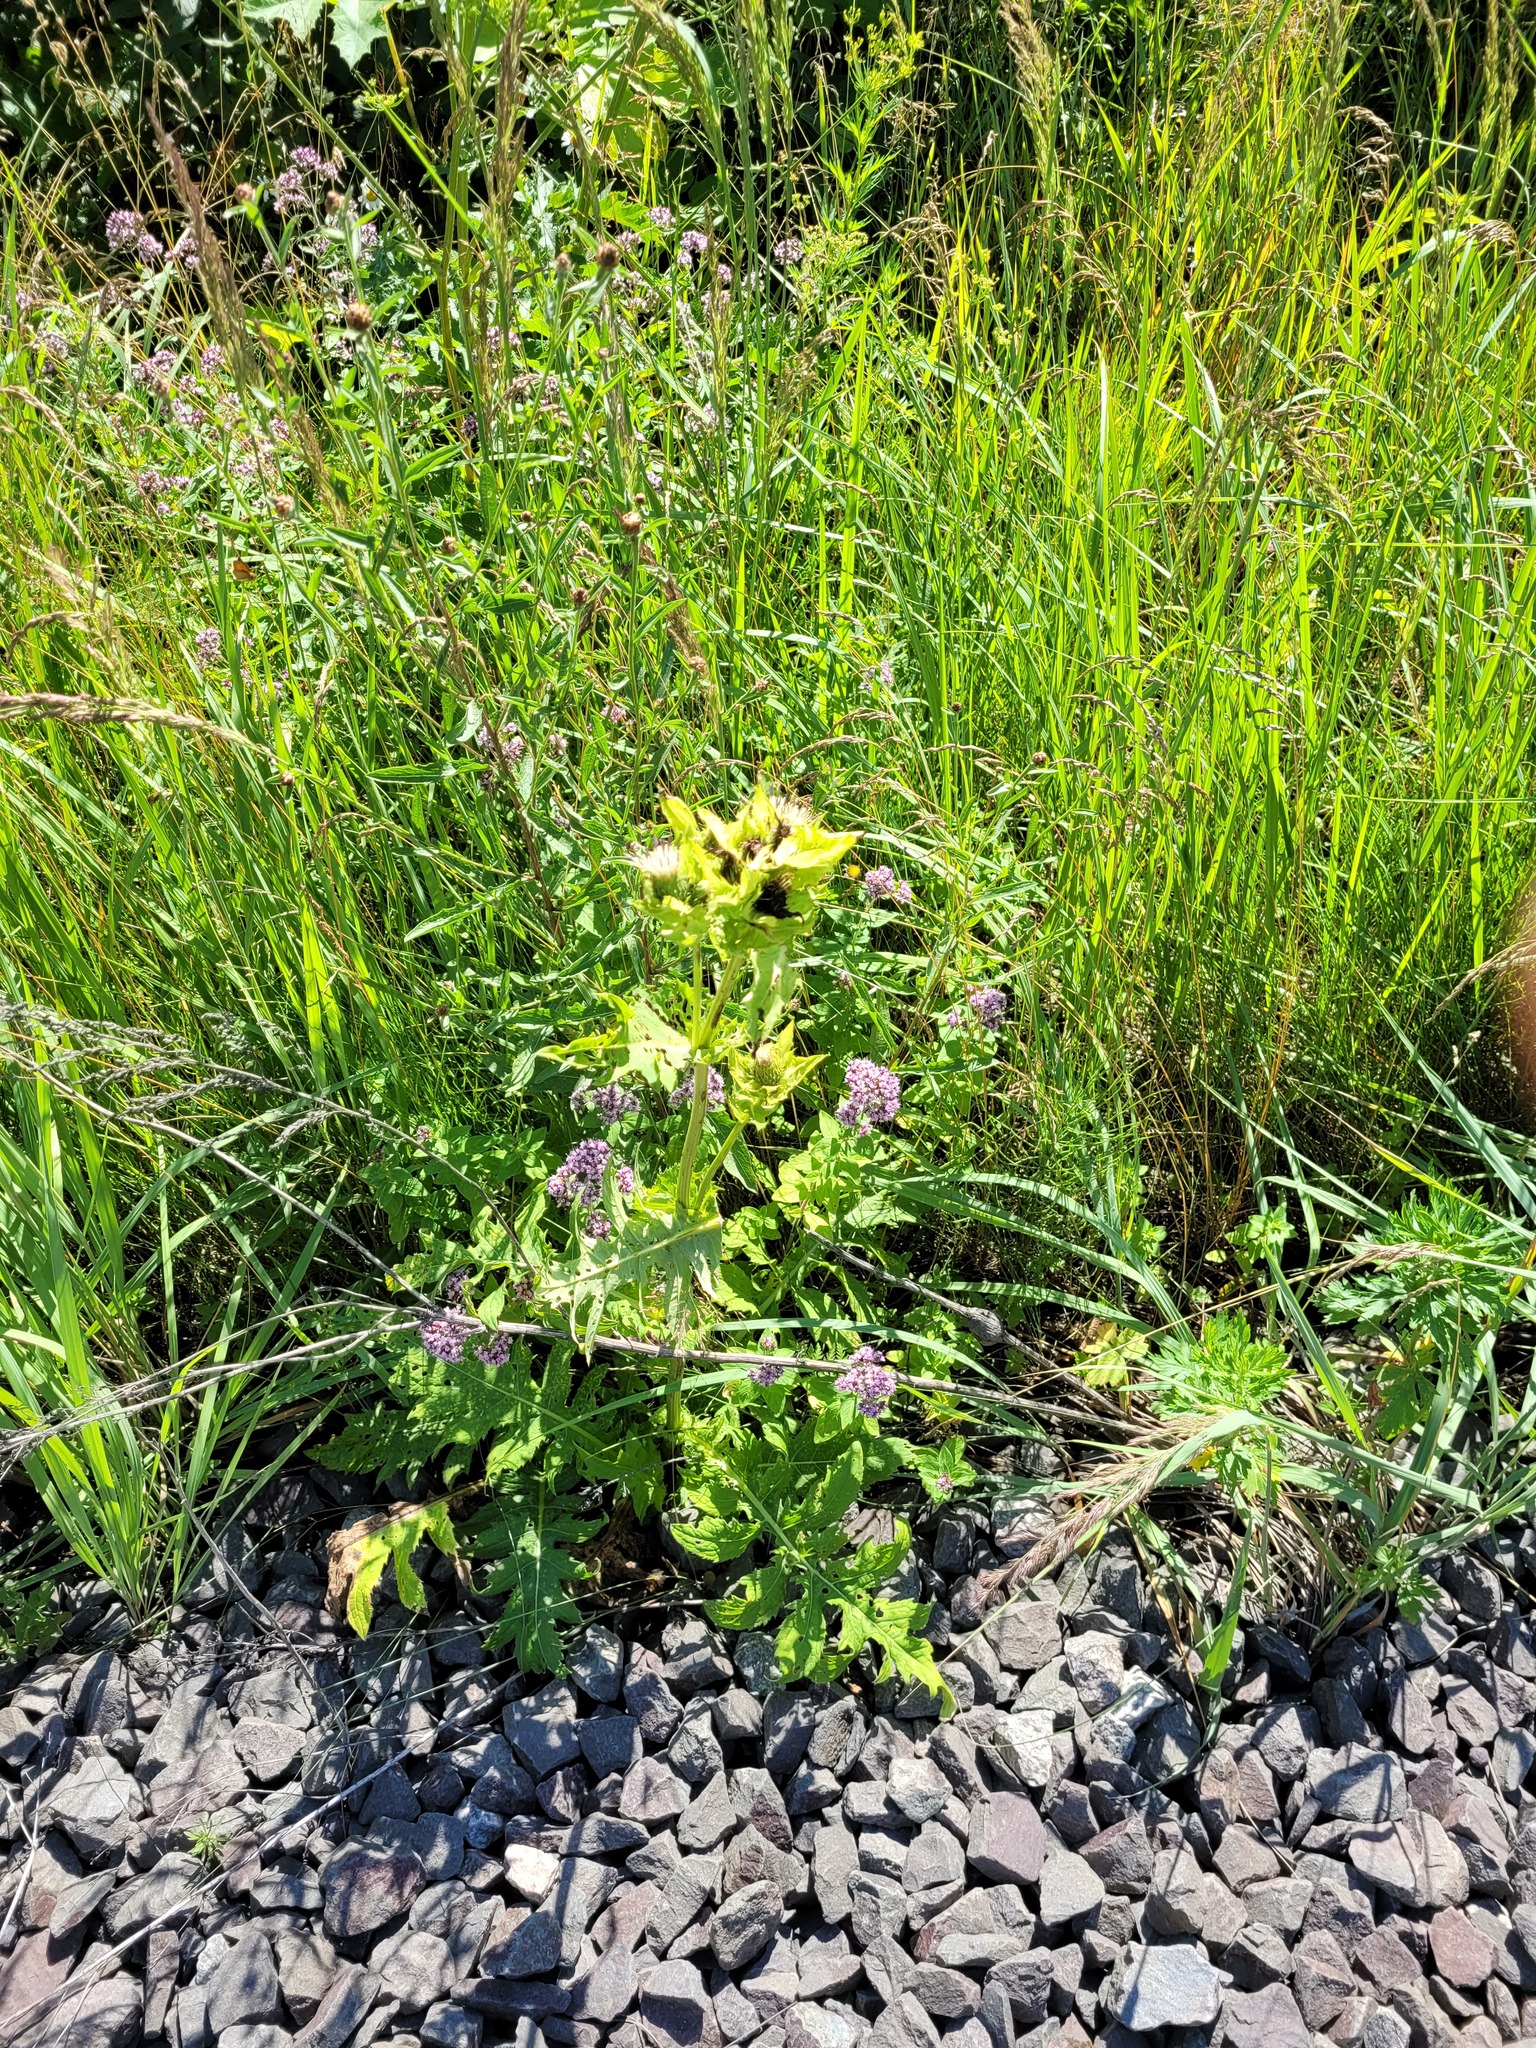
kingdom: Plantae
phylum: Tracheophyta
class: Magnoliopsida
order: Asterales
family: Asteraceae
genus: Cirsium
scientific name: Cirsium oleraceum
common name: Cabbage thistle
